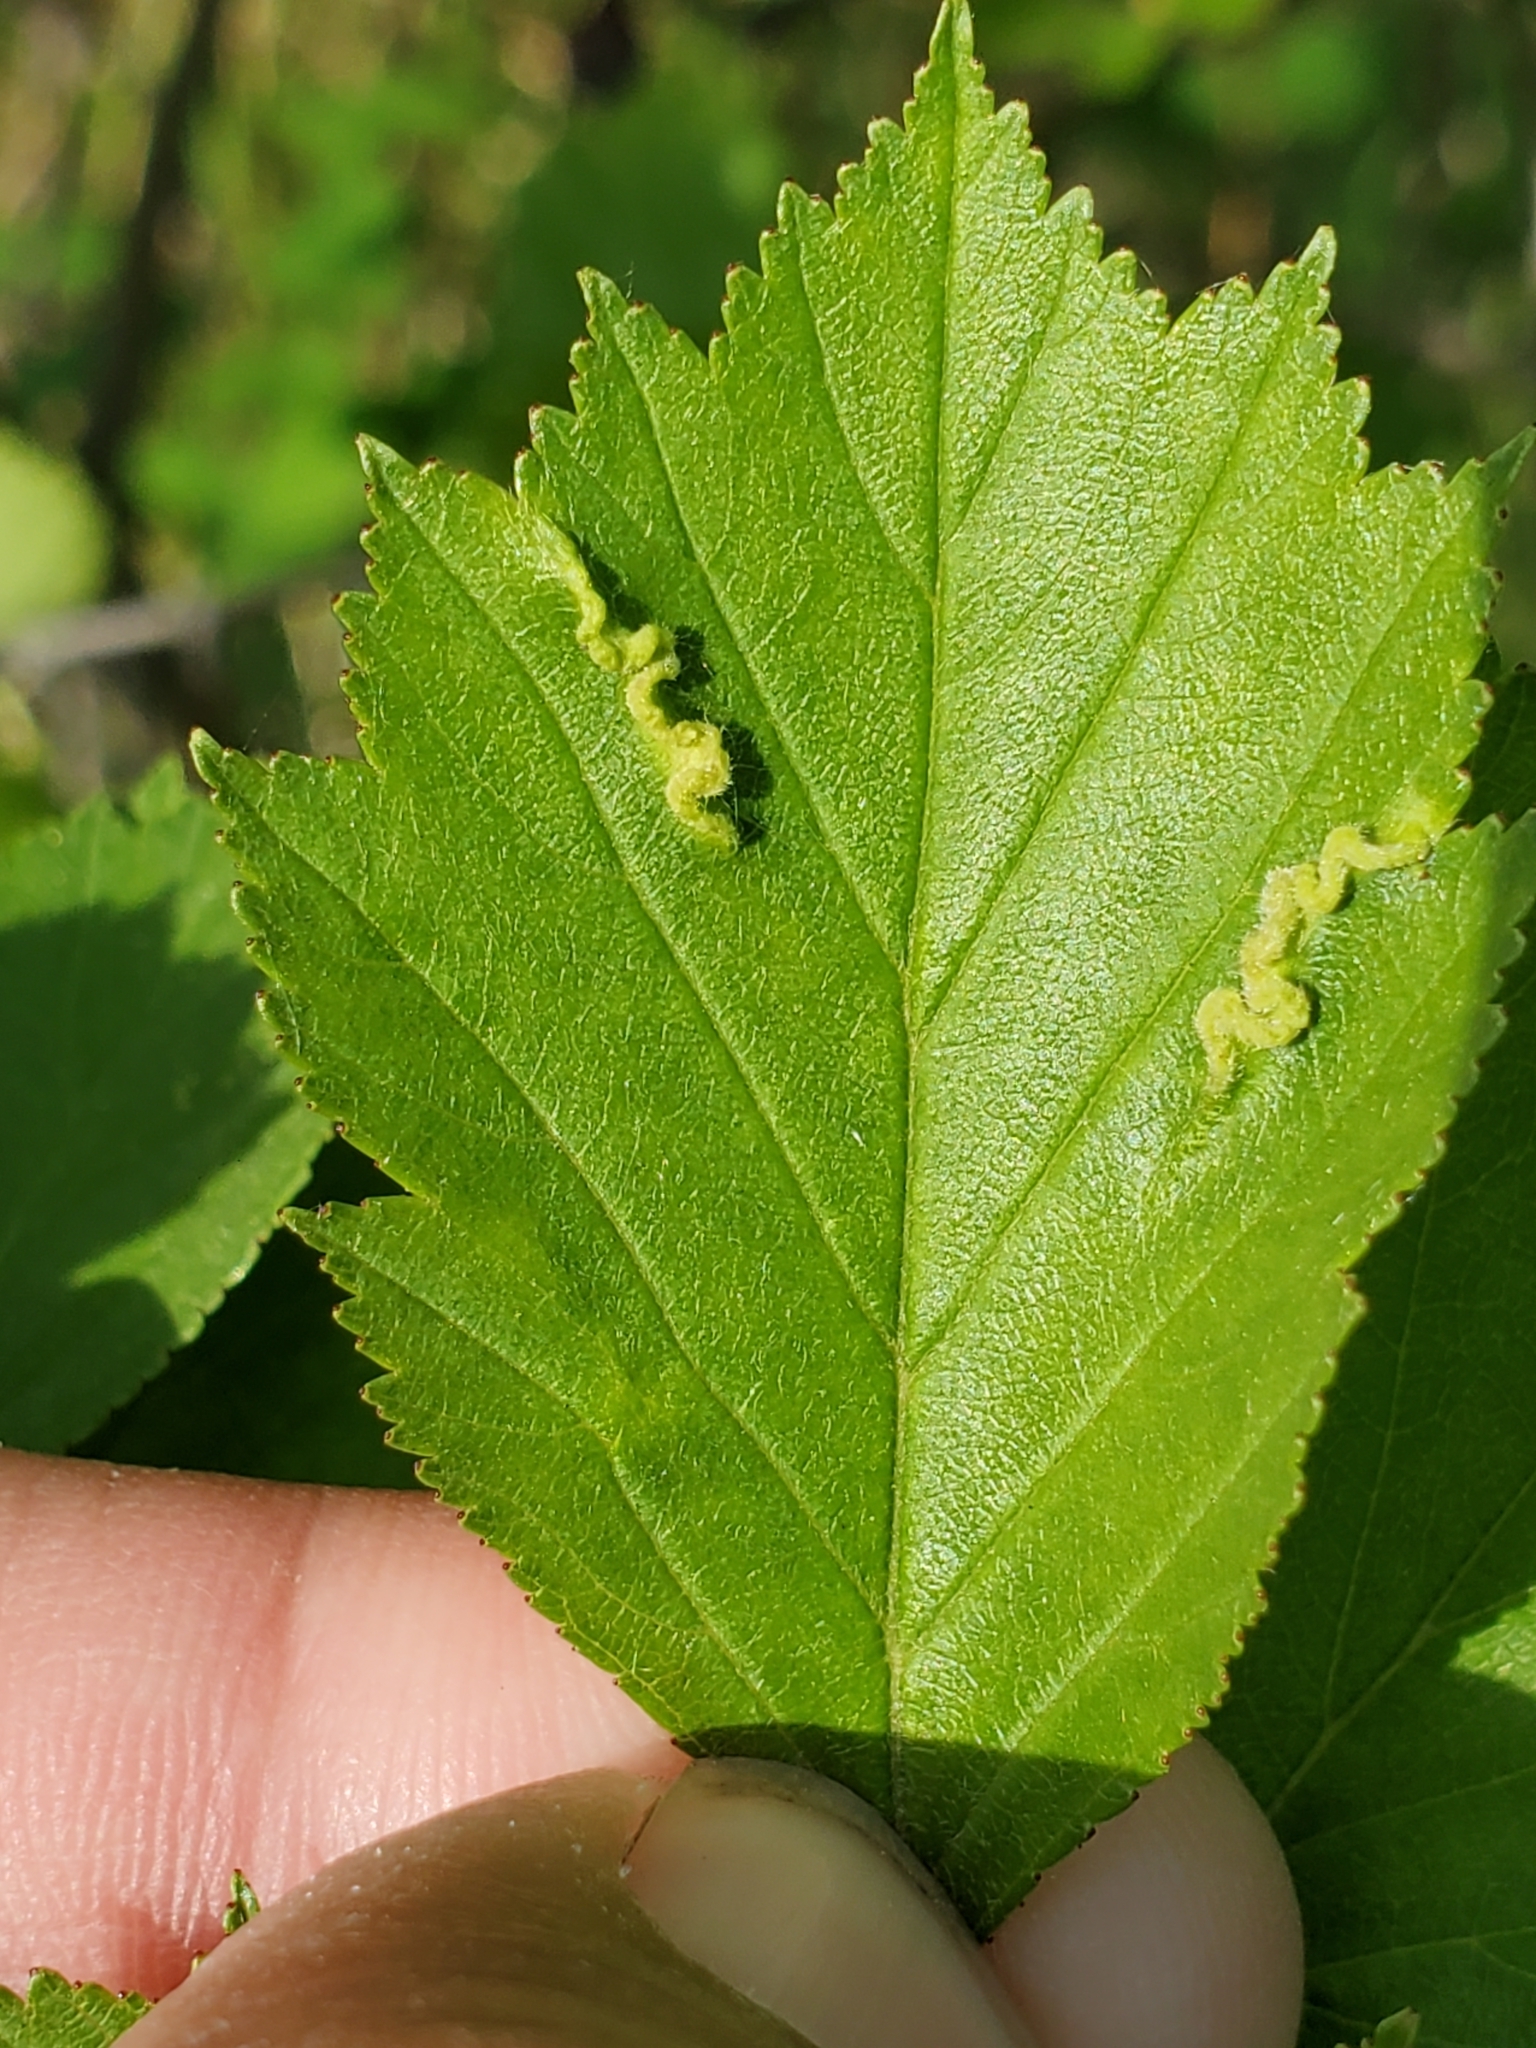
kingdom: Animalia
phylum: Arthropoda
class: Insecta
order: Diptera
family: Cecidomyiidae
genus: Blaesodiplosis
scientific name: Blaesodiplosis crataegifolia
